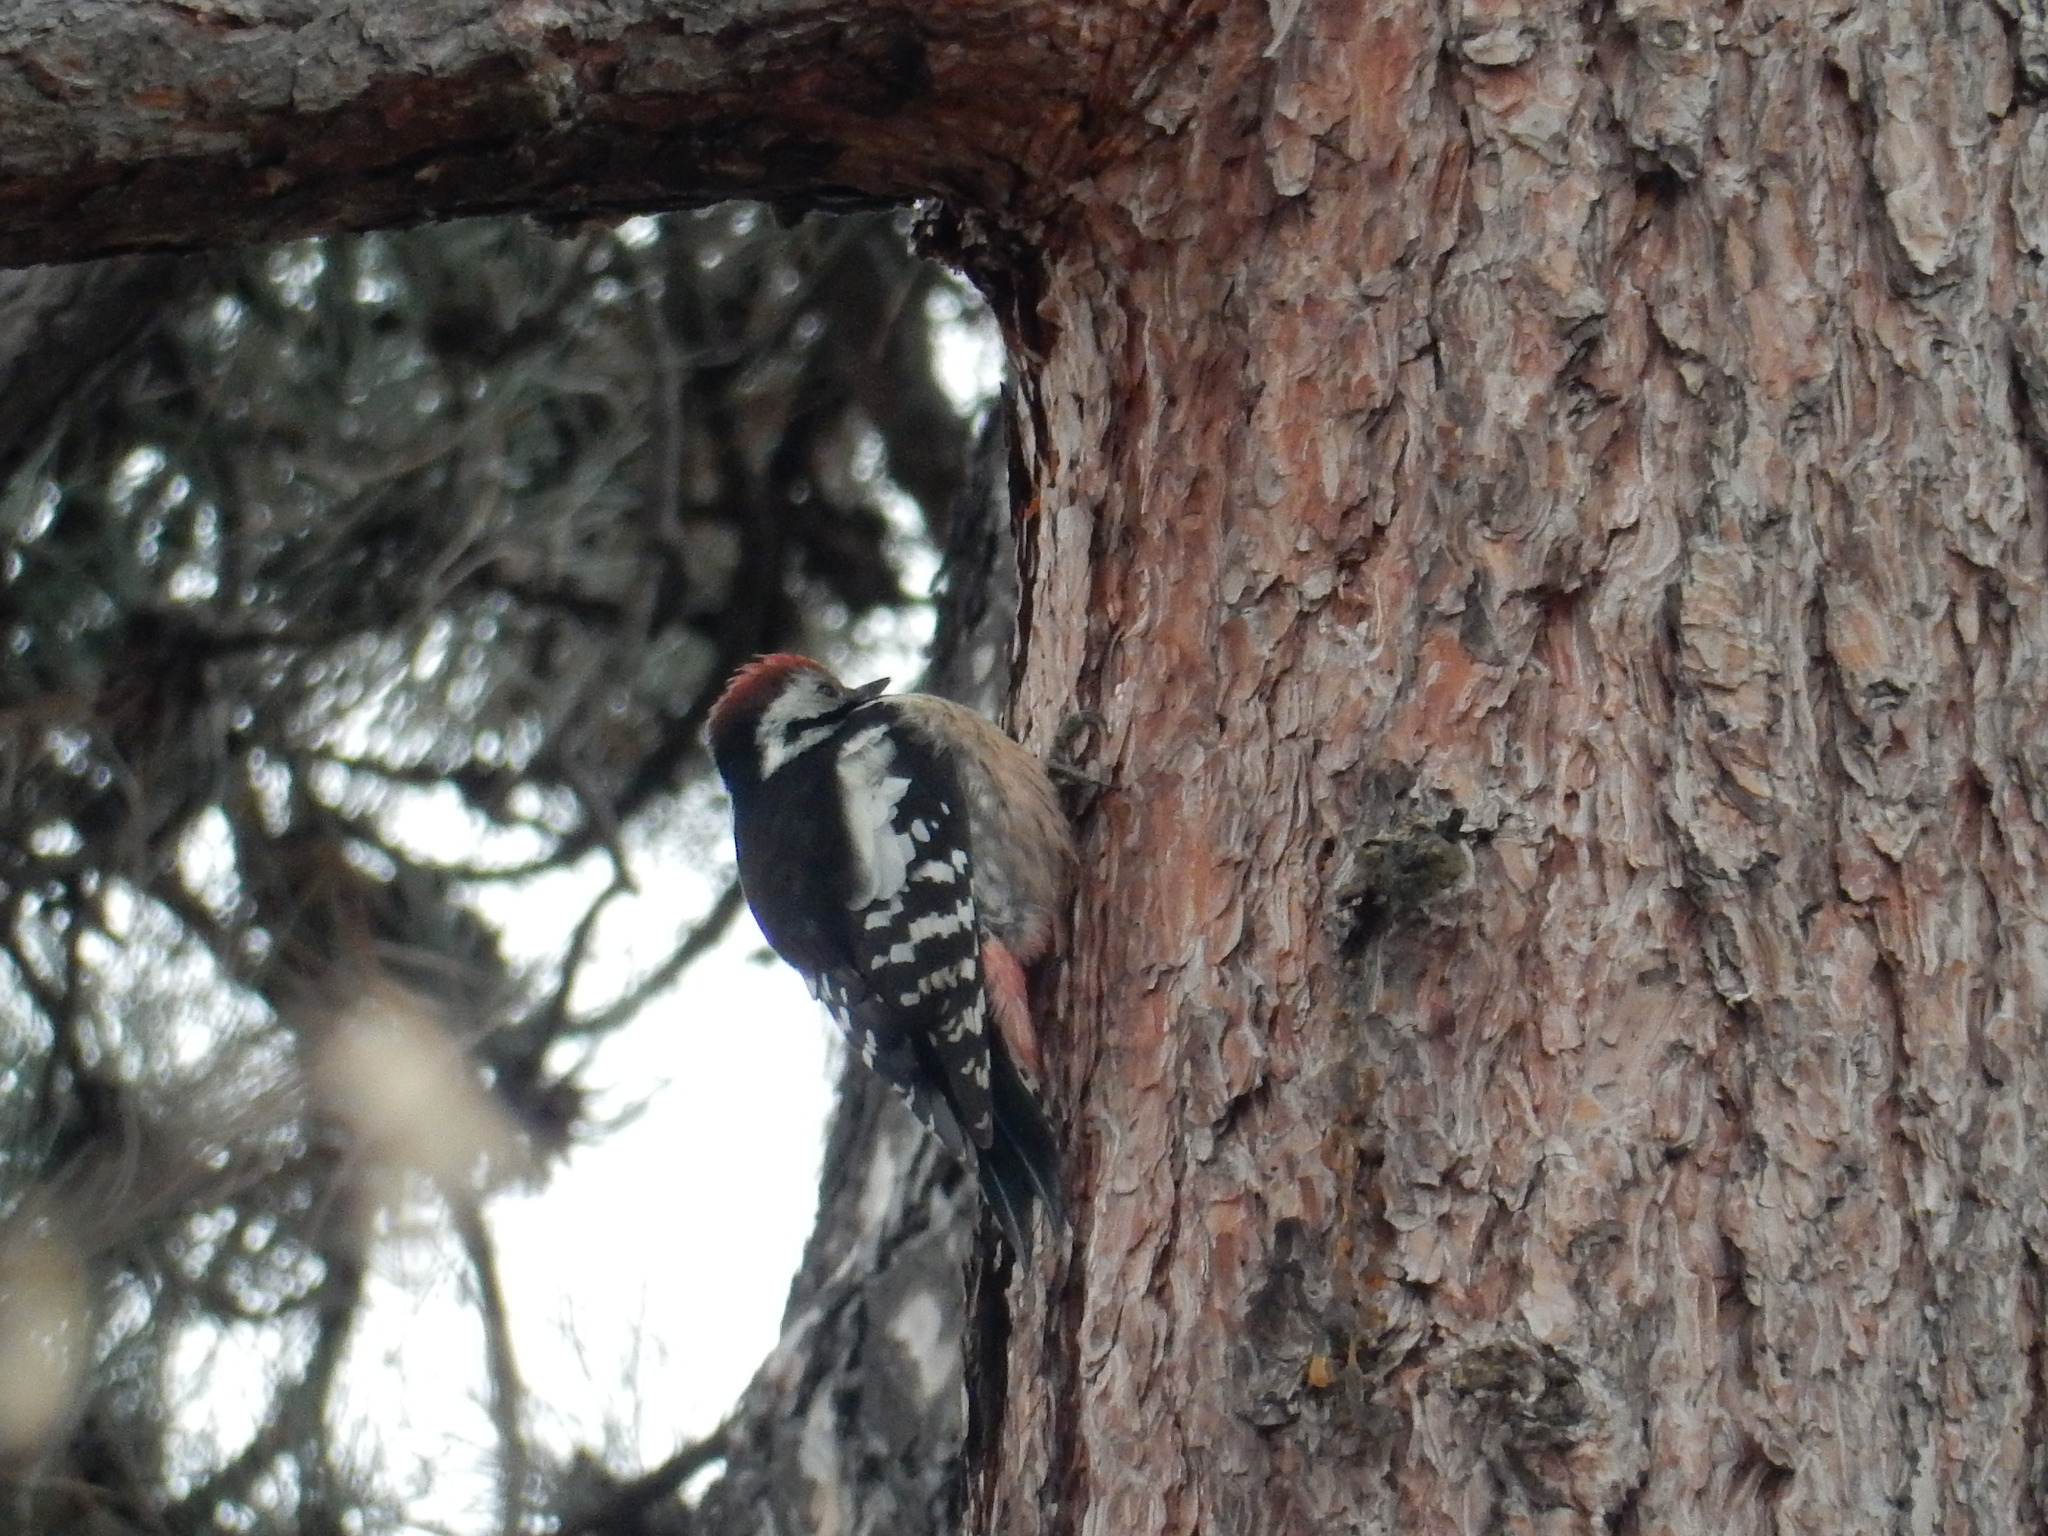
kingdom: Animalia
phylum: Chordata
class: Aves
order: Piciformes
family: Picidae
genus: Dendrocoptes
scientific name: Dendrocoptes medius
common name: Middle spotted woodpecker
